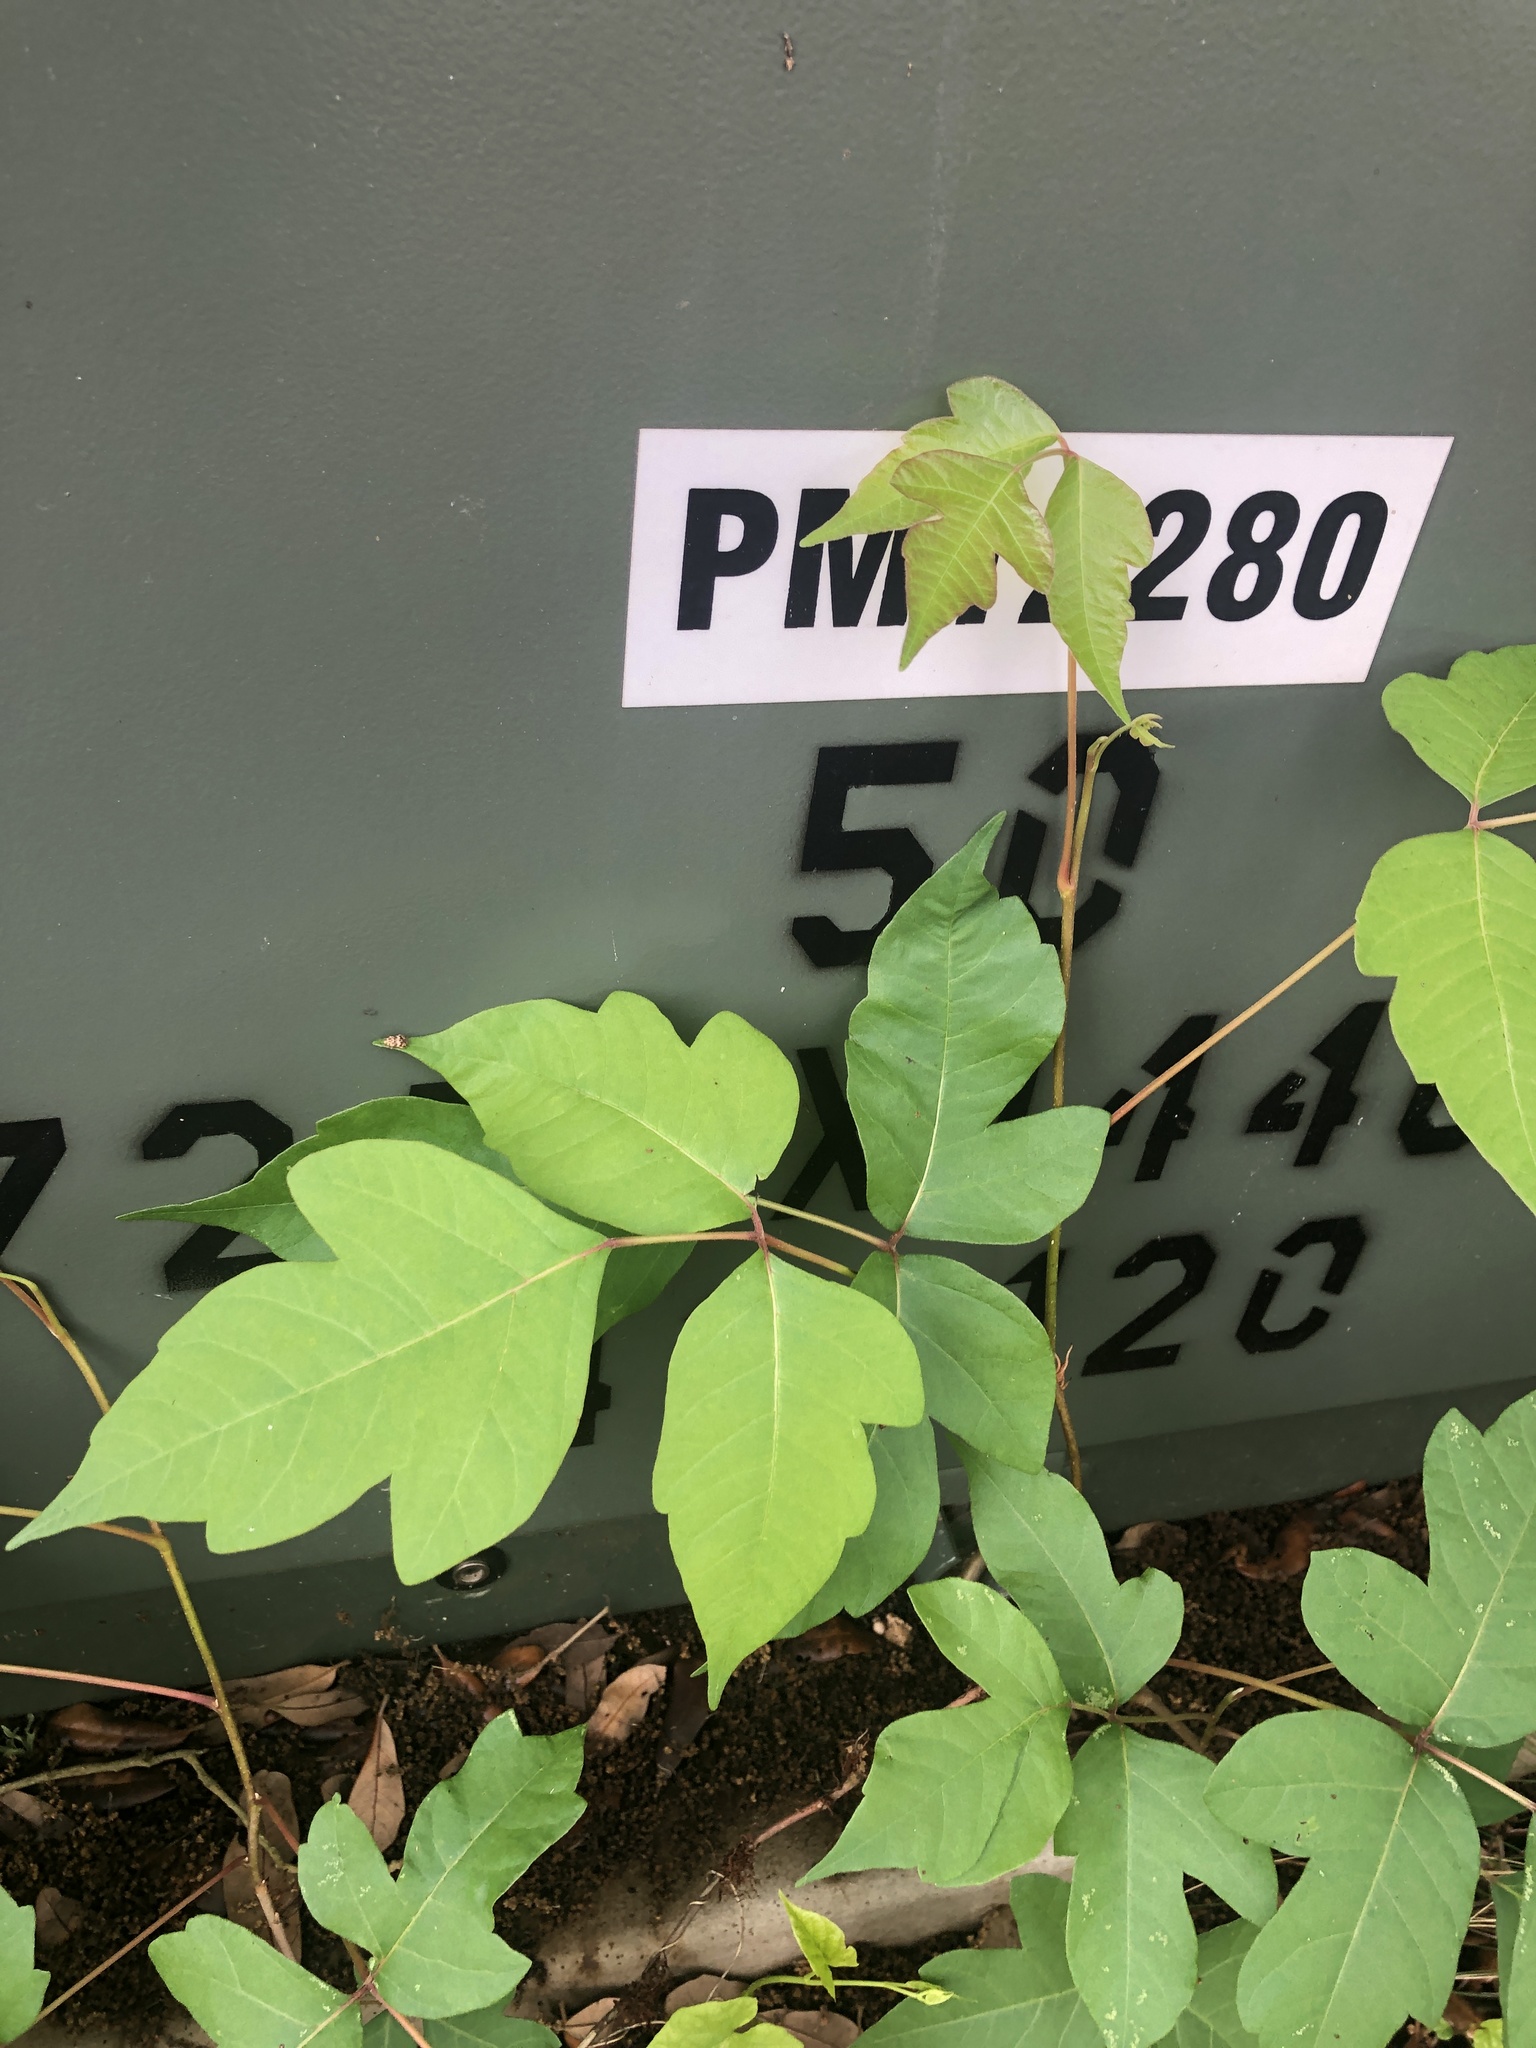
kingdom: Plantae
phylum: Tracheophyta
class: Magnoliopsida
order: Sapindales
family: Anacardiaceae
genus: Toxicodendron
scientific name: Toxicodendron radicans
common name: Poison ivy
